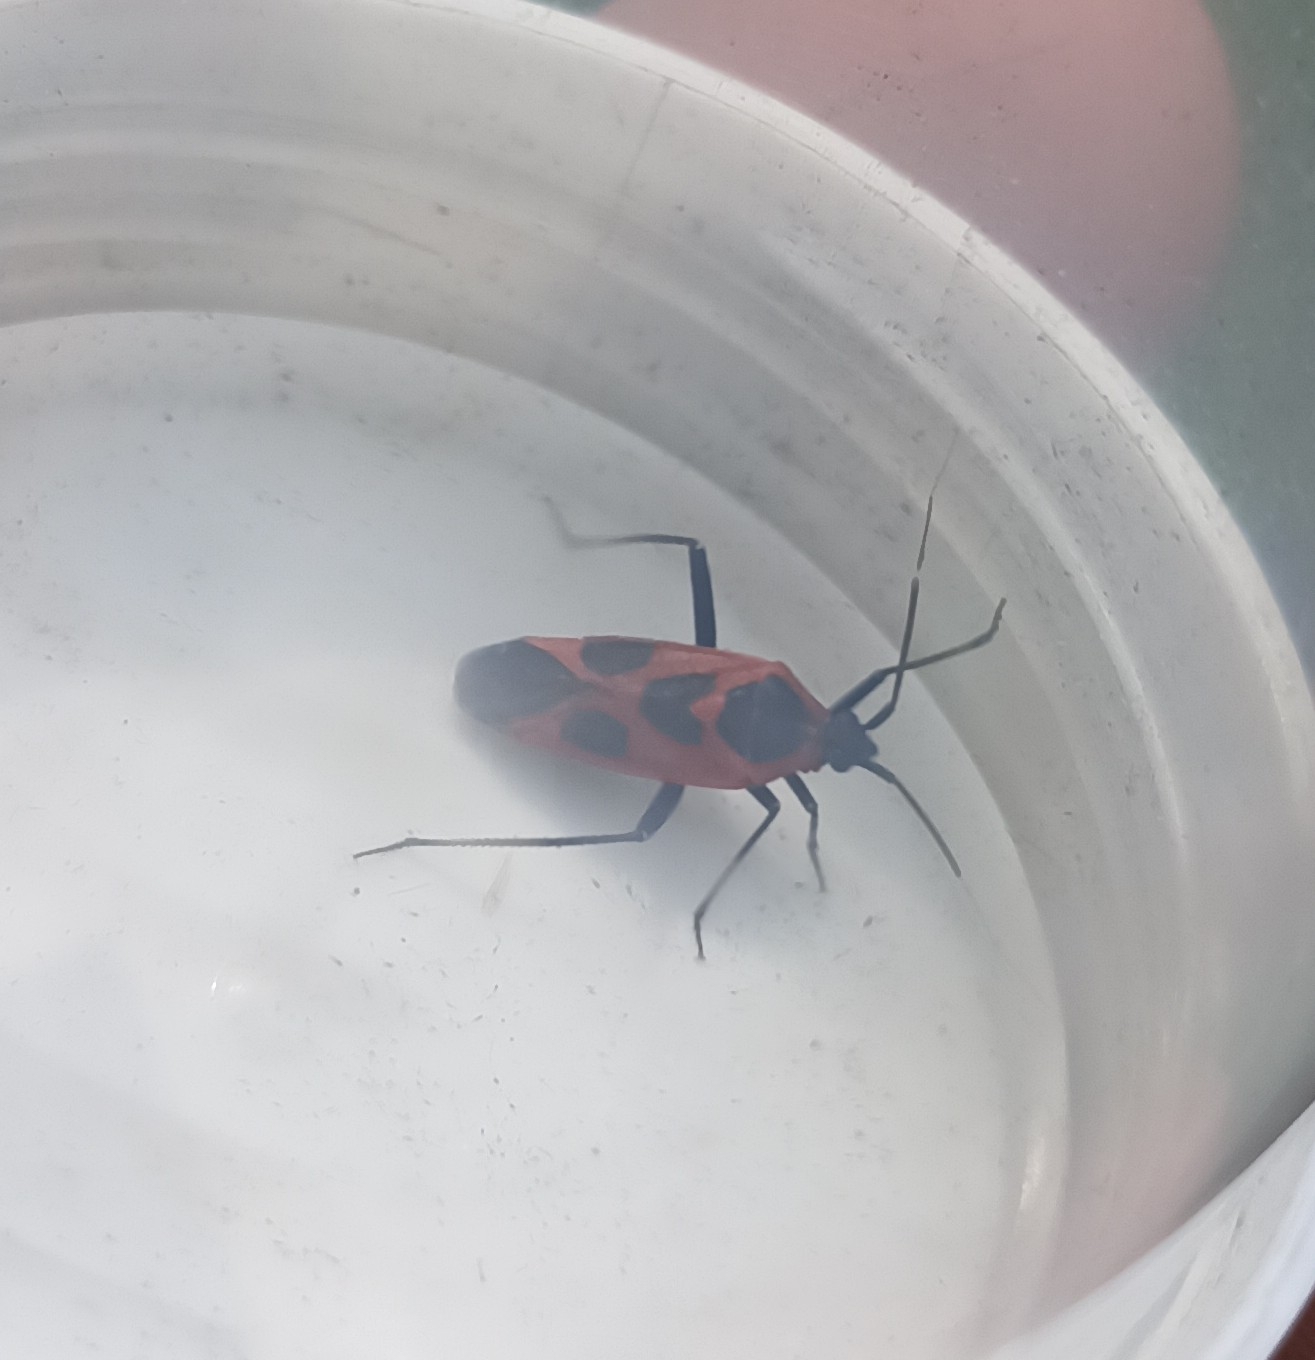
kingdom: Animalia
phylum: Arthropoda
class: Insecta
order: Hemiptera
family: Miridae
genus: Calocoris
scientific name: Calocoris nemoralis
